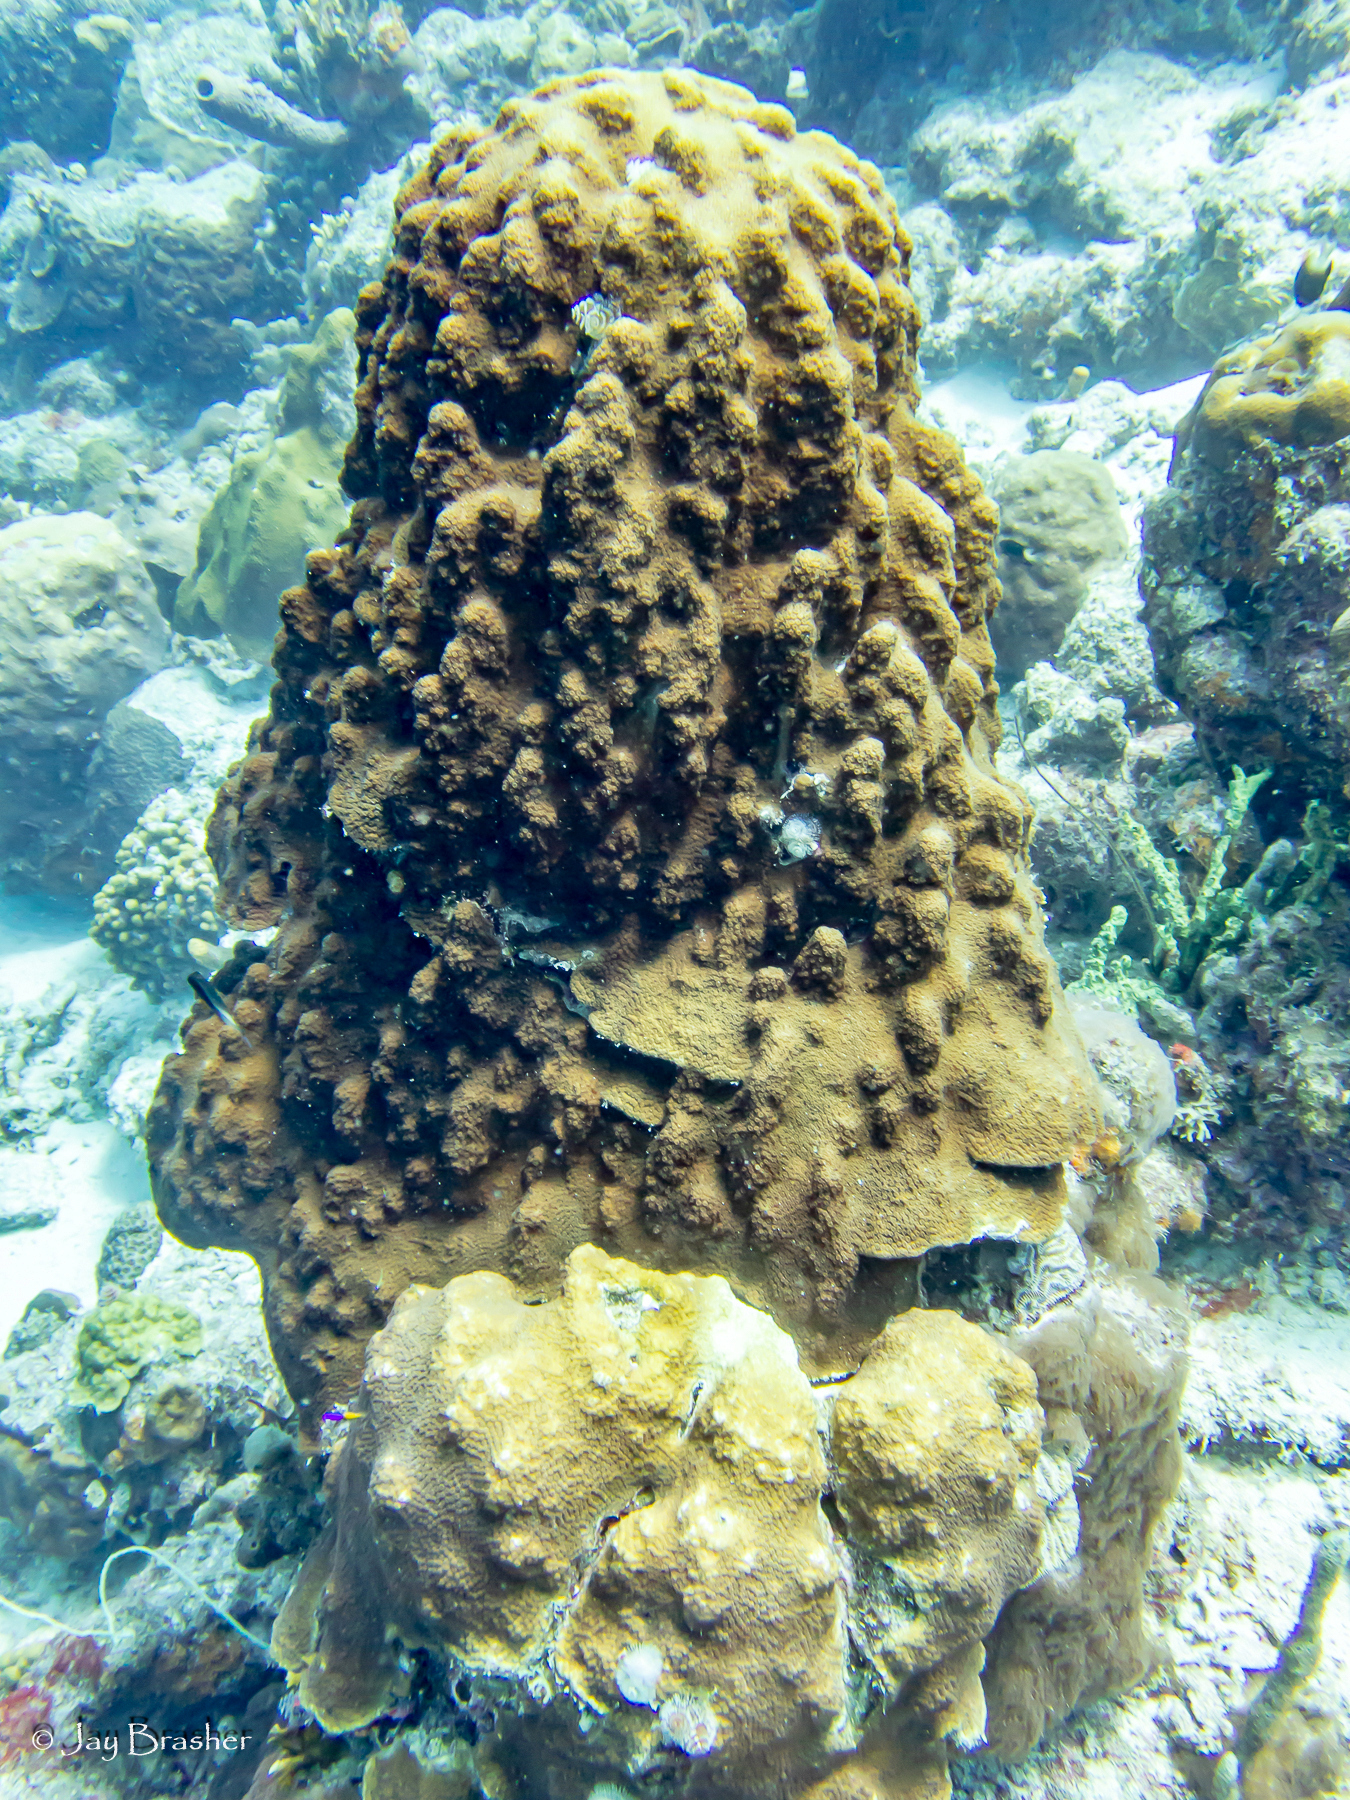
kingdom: Animalia
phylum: Cnidaria
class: Anthozoa
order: Scleractinia
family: Merulinidae
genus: Orbicella
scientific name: Orbicella faveolata
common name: Mountainous star coral
